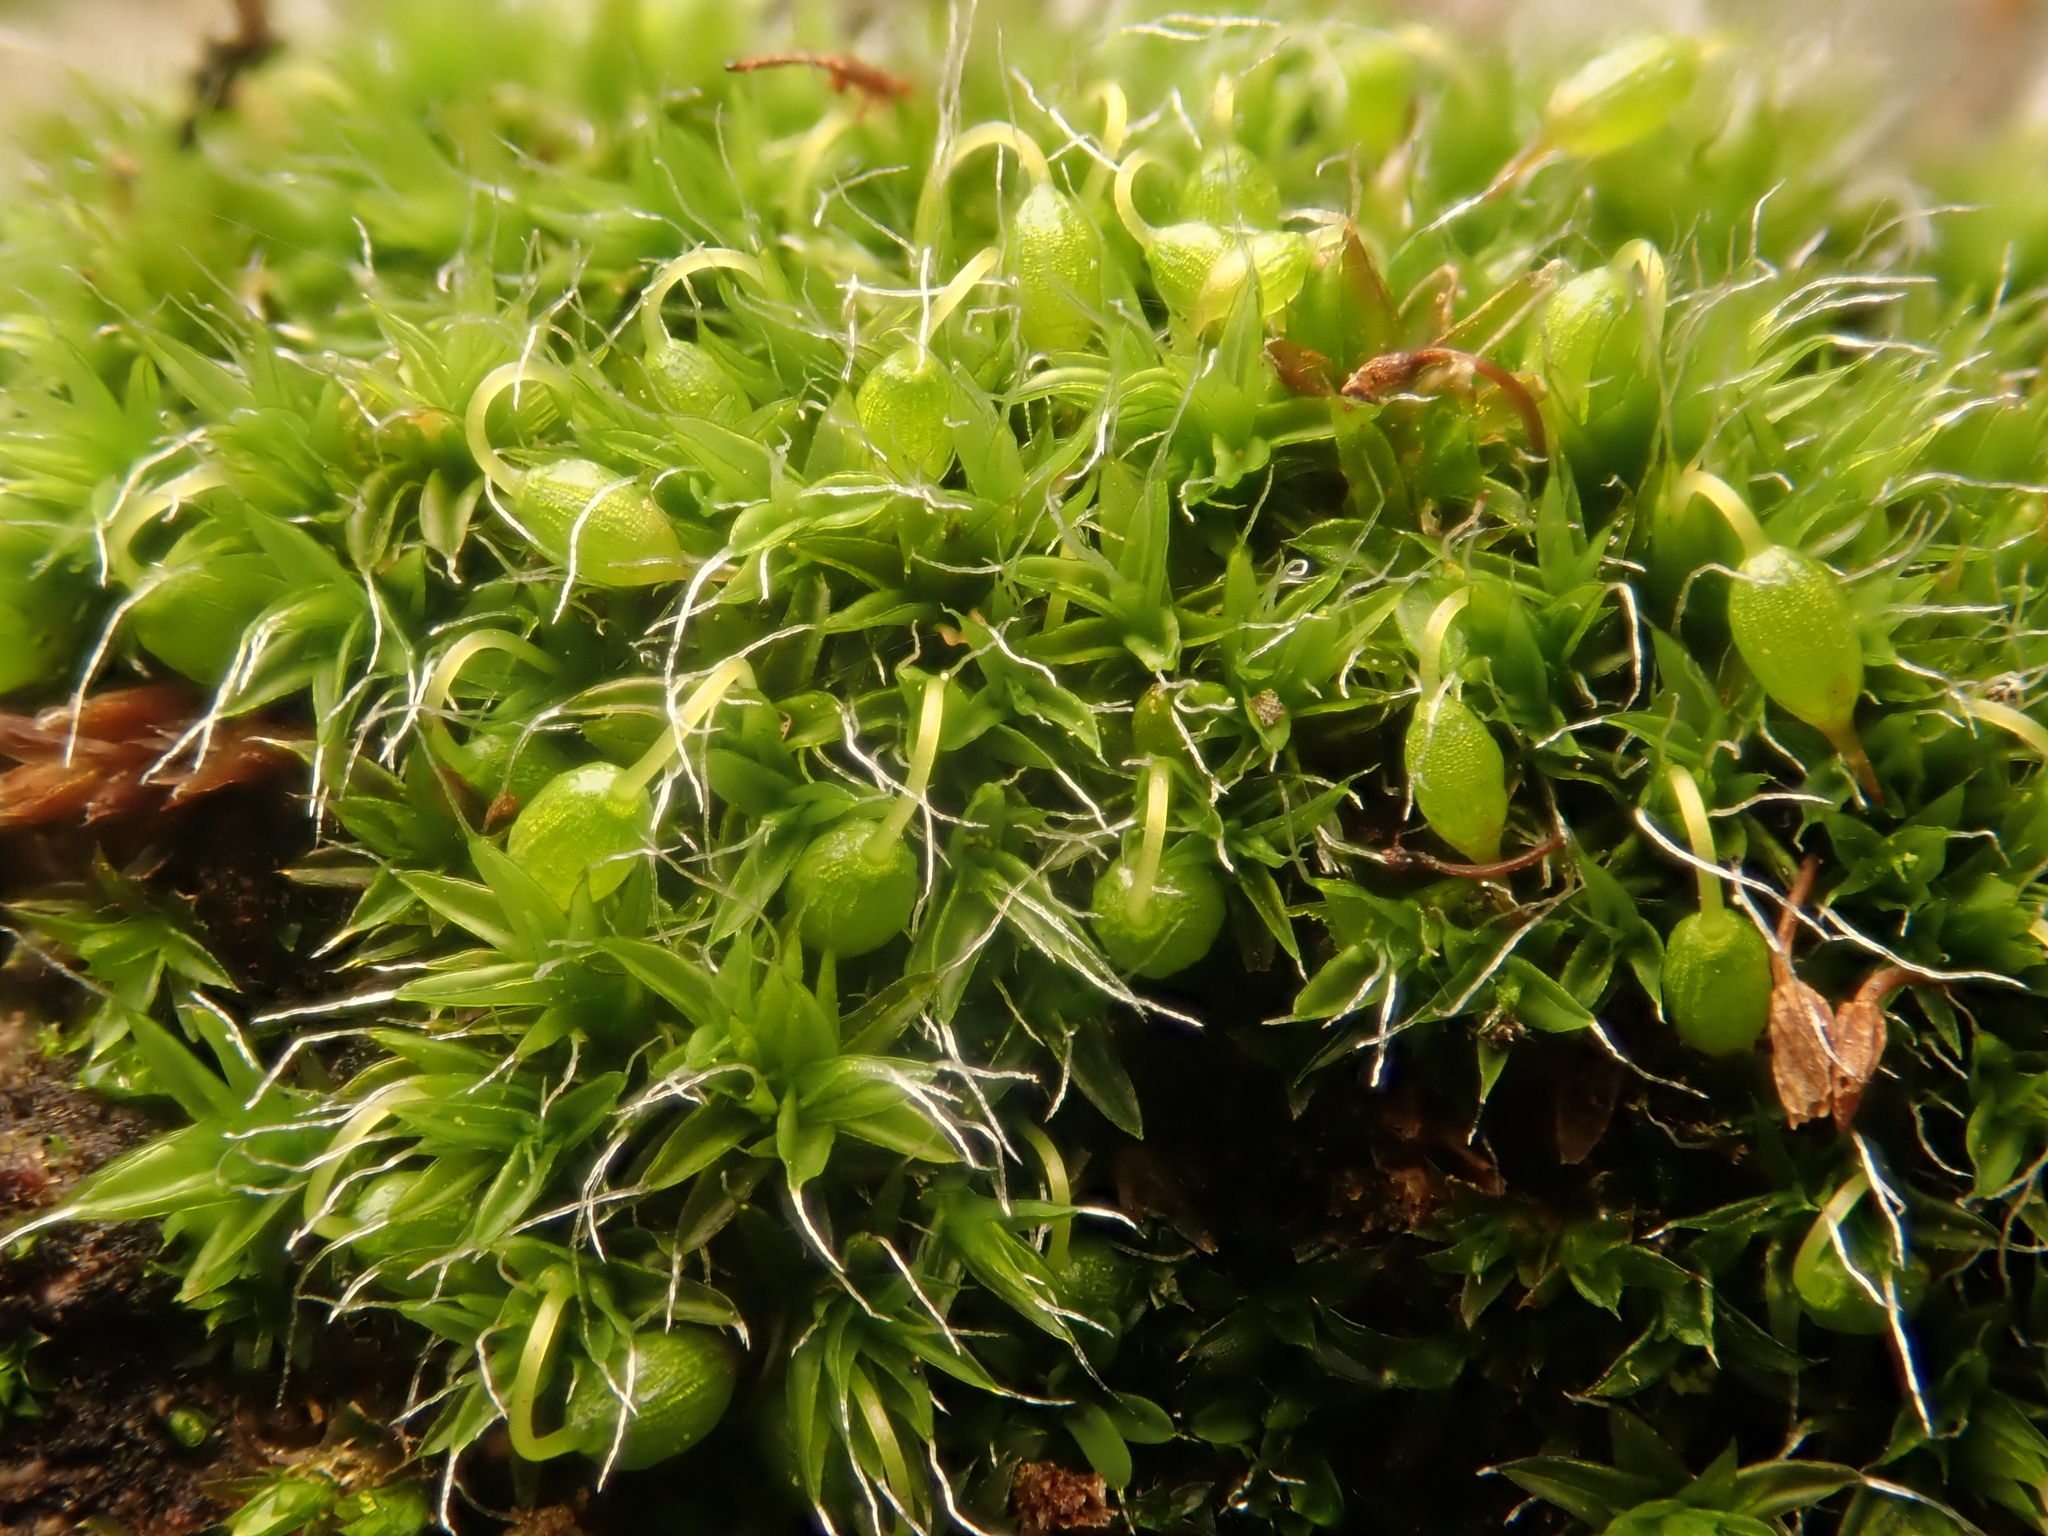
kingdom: Plantae
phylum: Bryophyta
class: Bryopsida
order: Grimmiales
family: Grimmiaceae
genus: Grimmia
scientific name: Grimmia pulvinata
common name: Grey-cushioned grimmia
